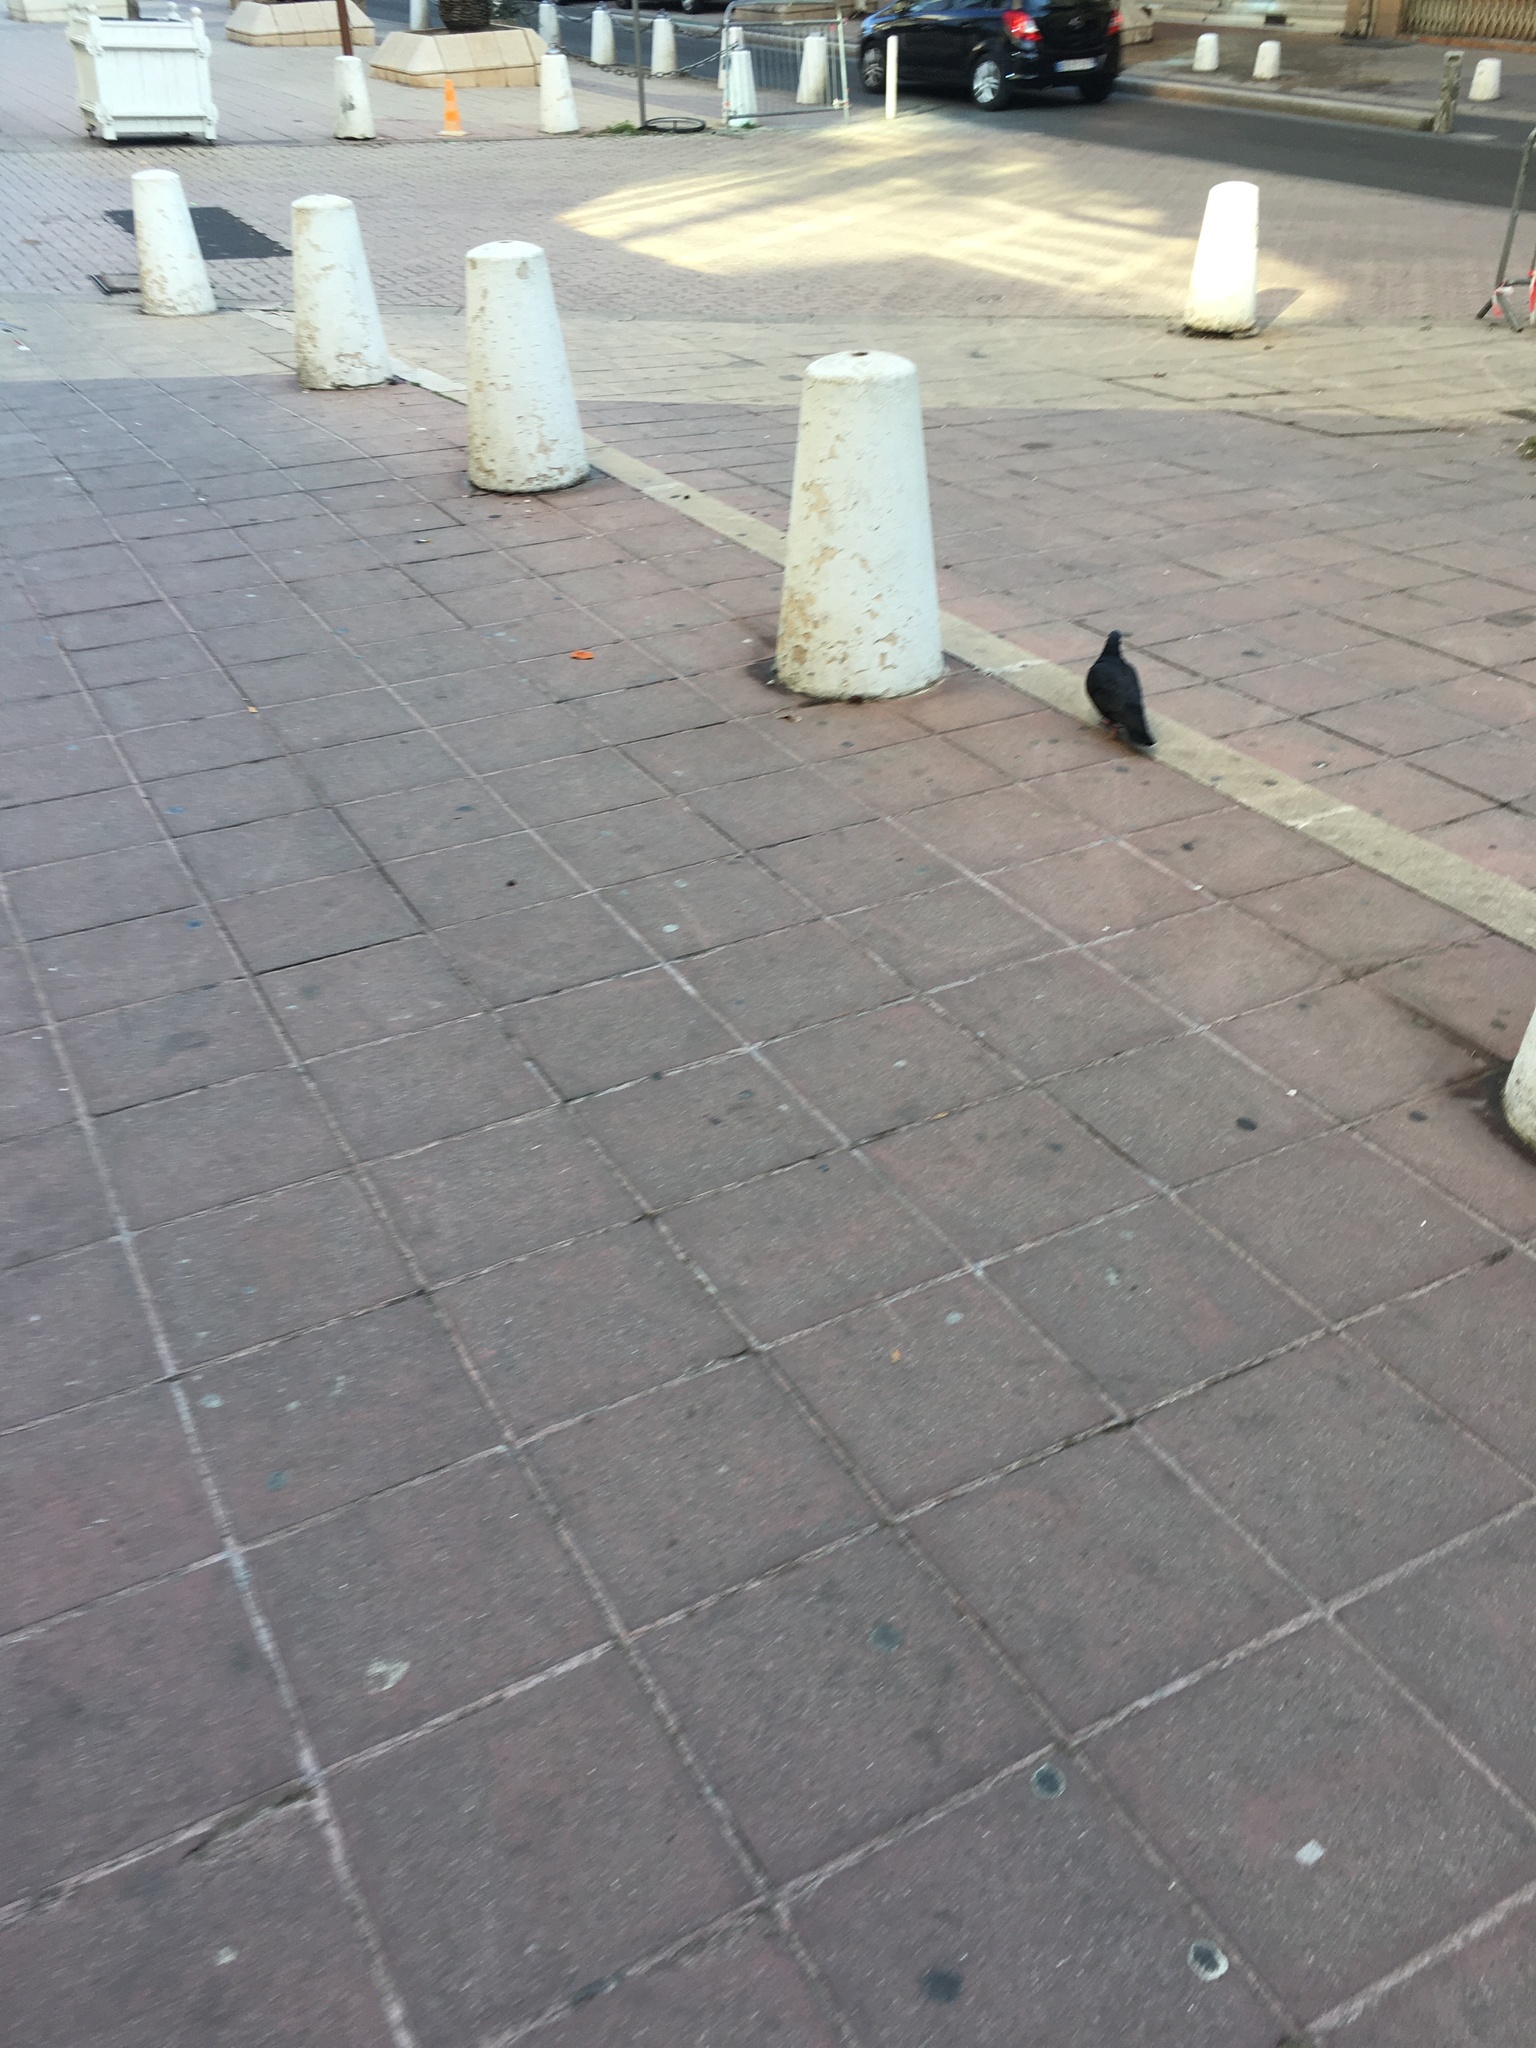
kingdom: Animalia
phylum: Chordata
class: Aves
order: Columbiformes
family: Columbidae
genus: Columba
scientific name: Columba livia
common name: Rock pigeon
